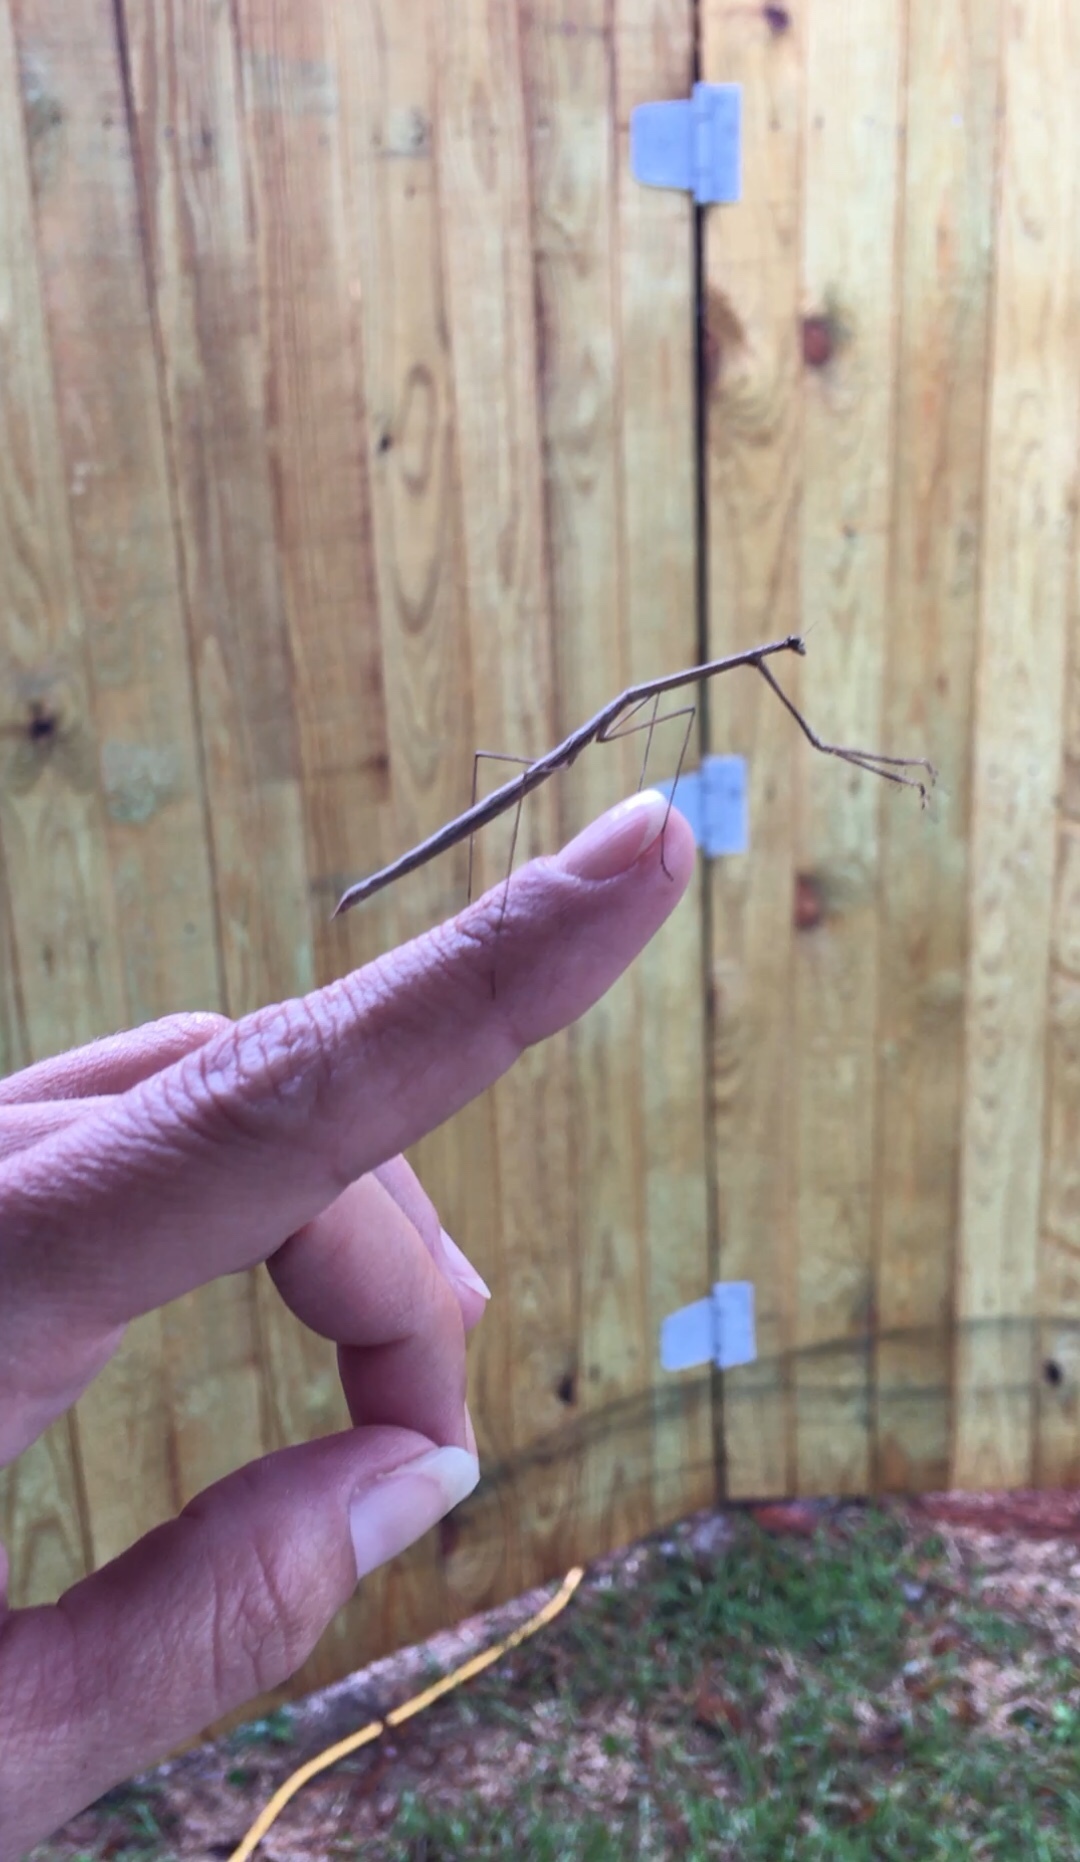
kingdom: Animalia
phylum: Arthropoda
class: Insecta
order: Mantodea
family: Thespidae
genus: Thesprotia
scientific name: Thesprotia graminis
